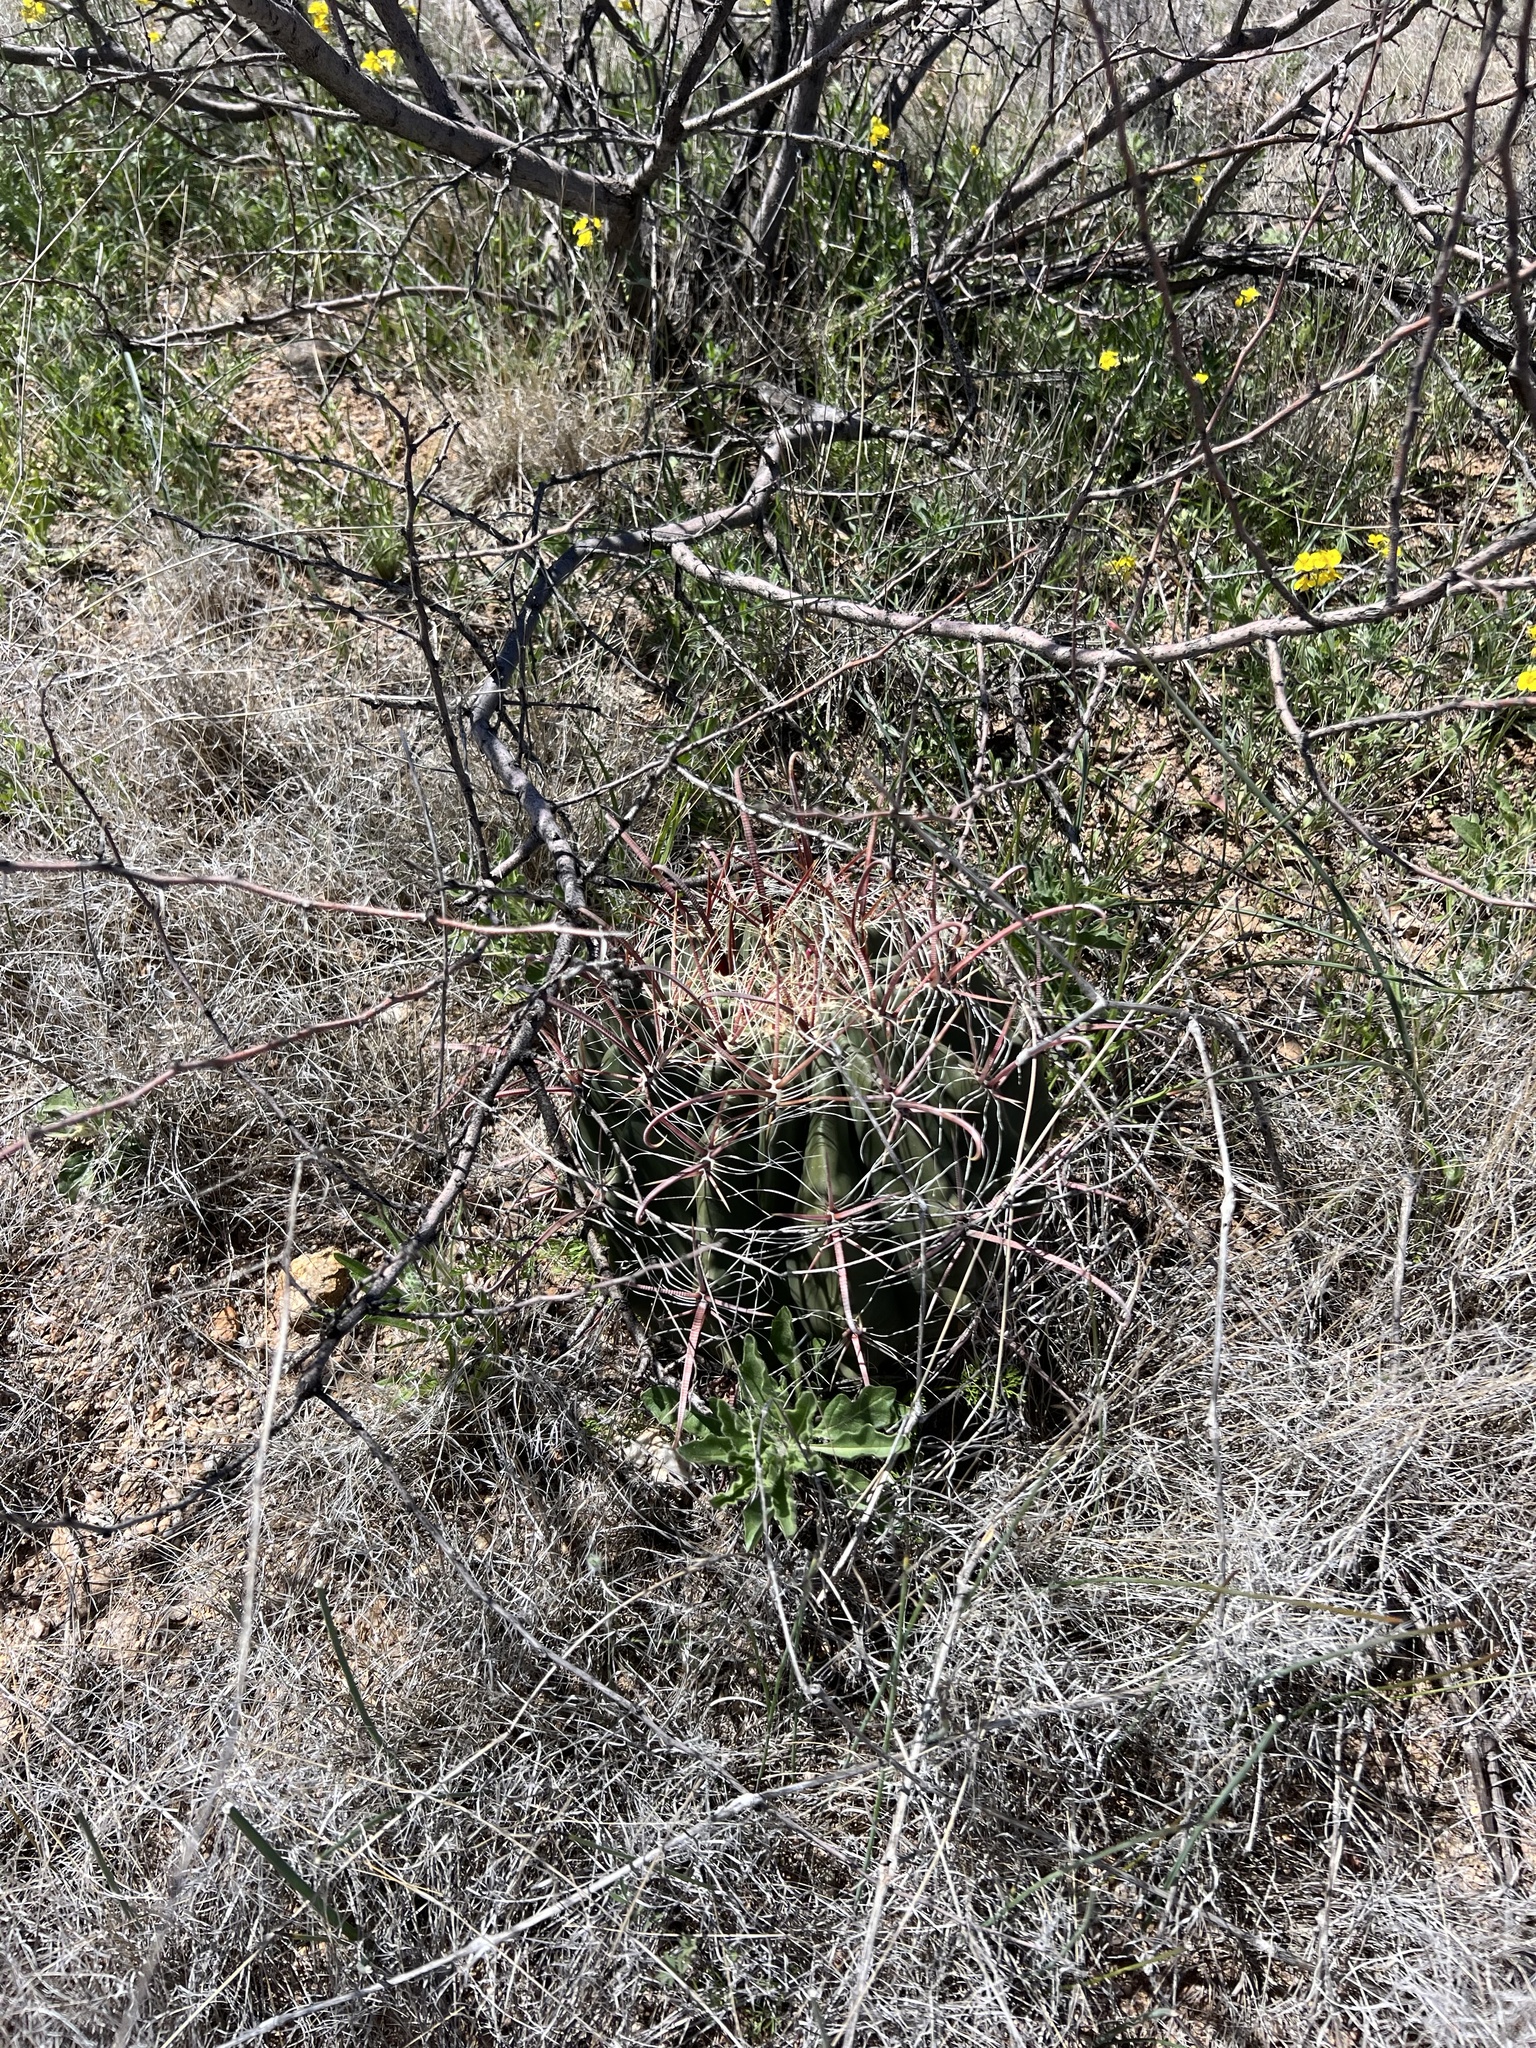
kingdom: Plantae
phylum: Tracheophyta
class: Magnoliopsida
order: Caryophyllales
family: Cactaceae
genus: Ferocactus
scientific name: Ferocactus wislizeni
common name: Candy barrel cactus
